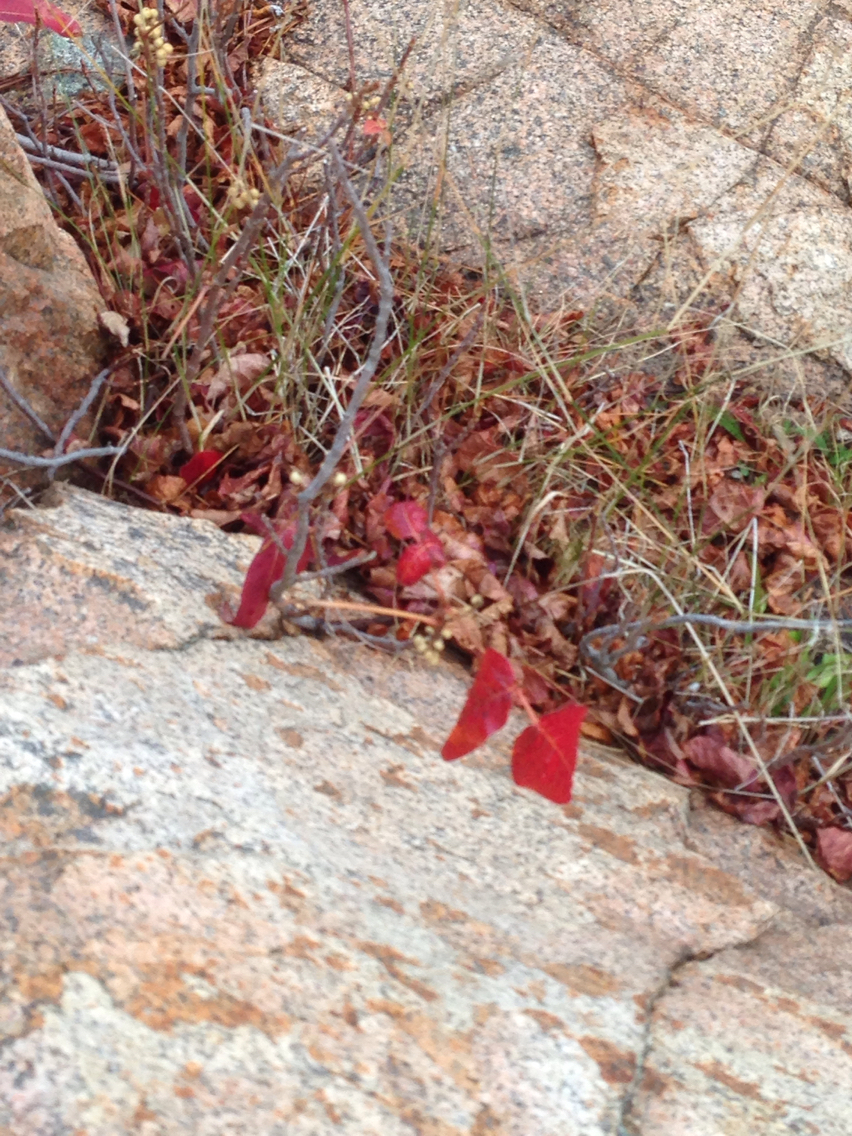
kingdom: Plantae
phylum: Tracheophyta
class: Magnoliopsida
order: Sapindales
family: Anacardiaceae
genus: Toxicodendron
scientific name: Toxicodendron rydbergii
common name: Rydberg's poison-ivy
